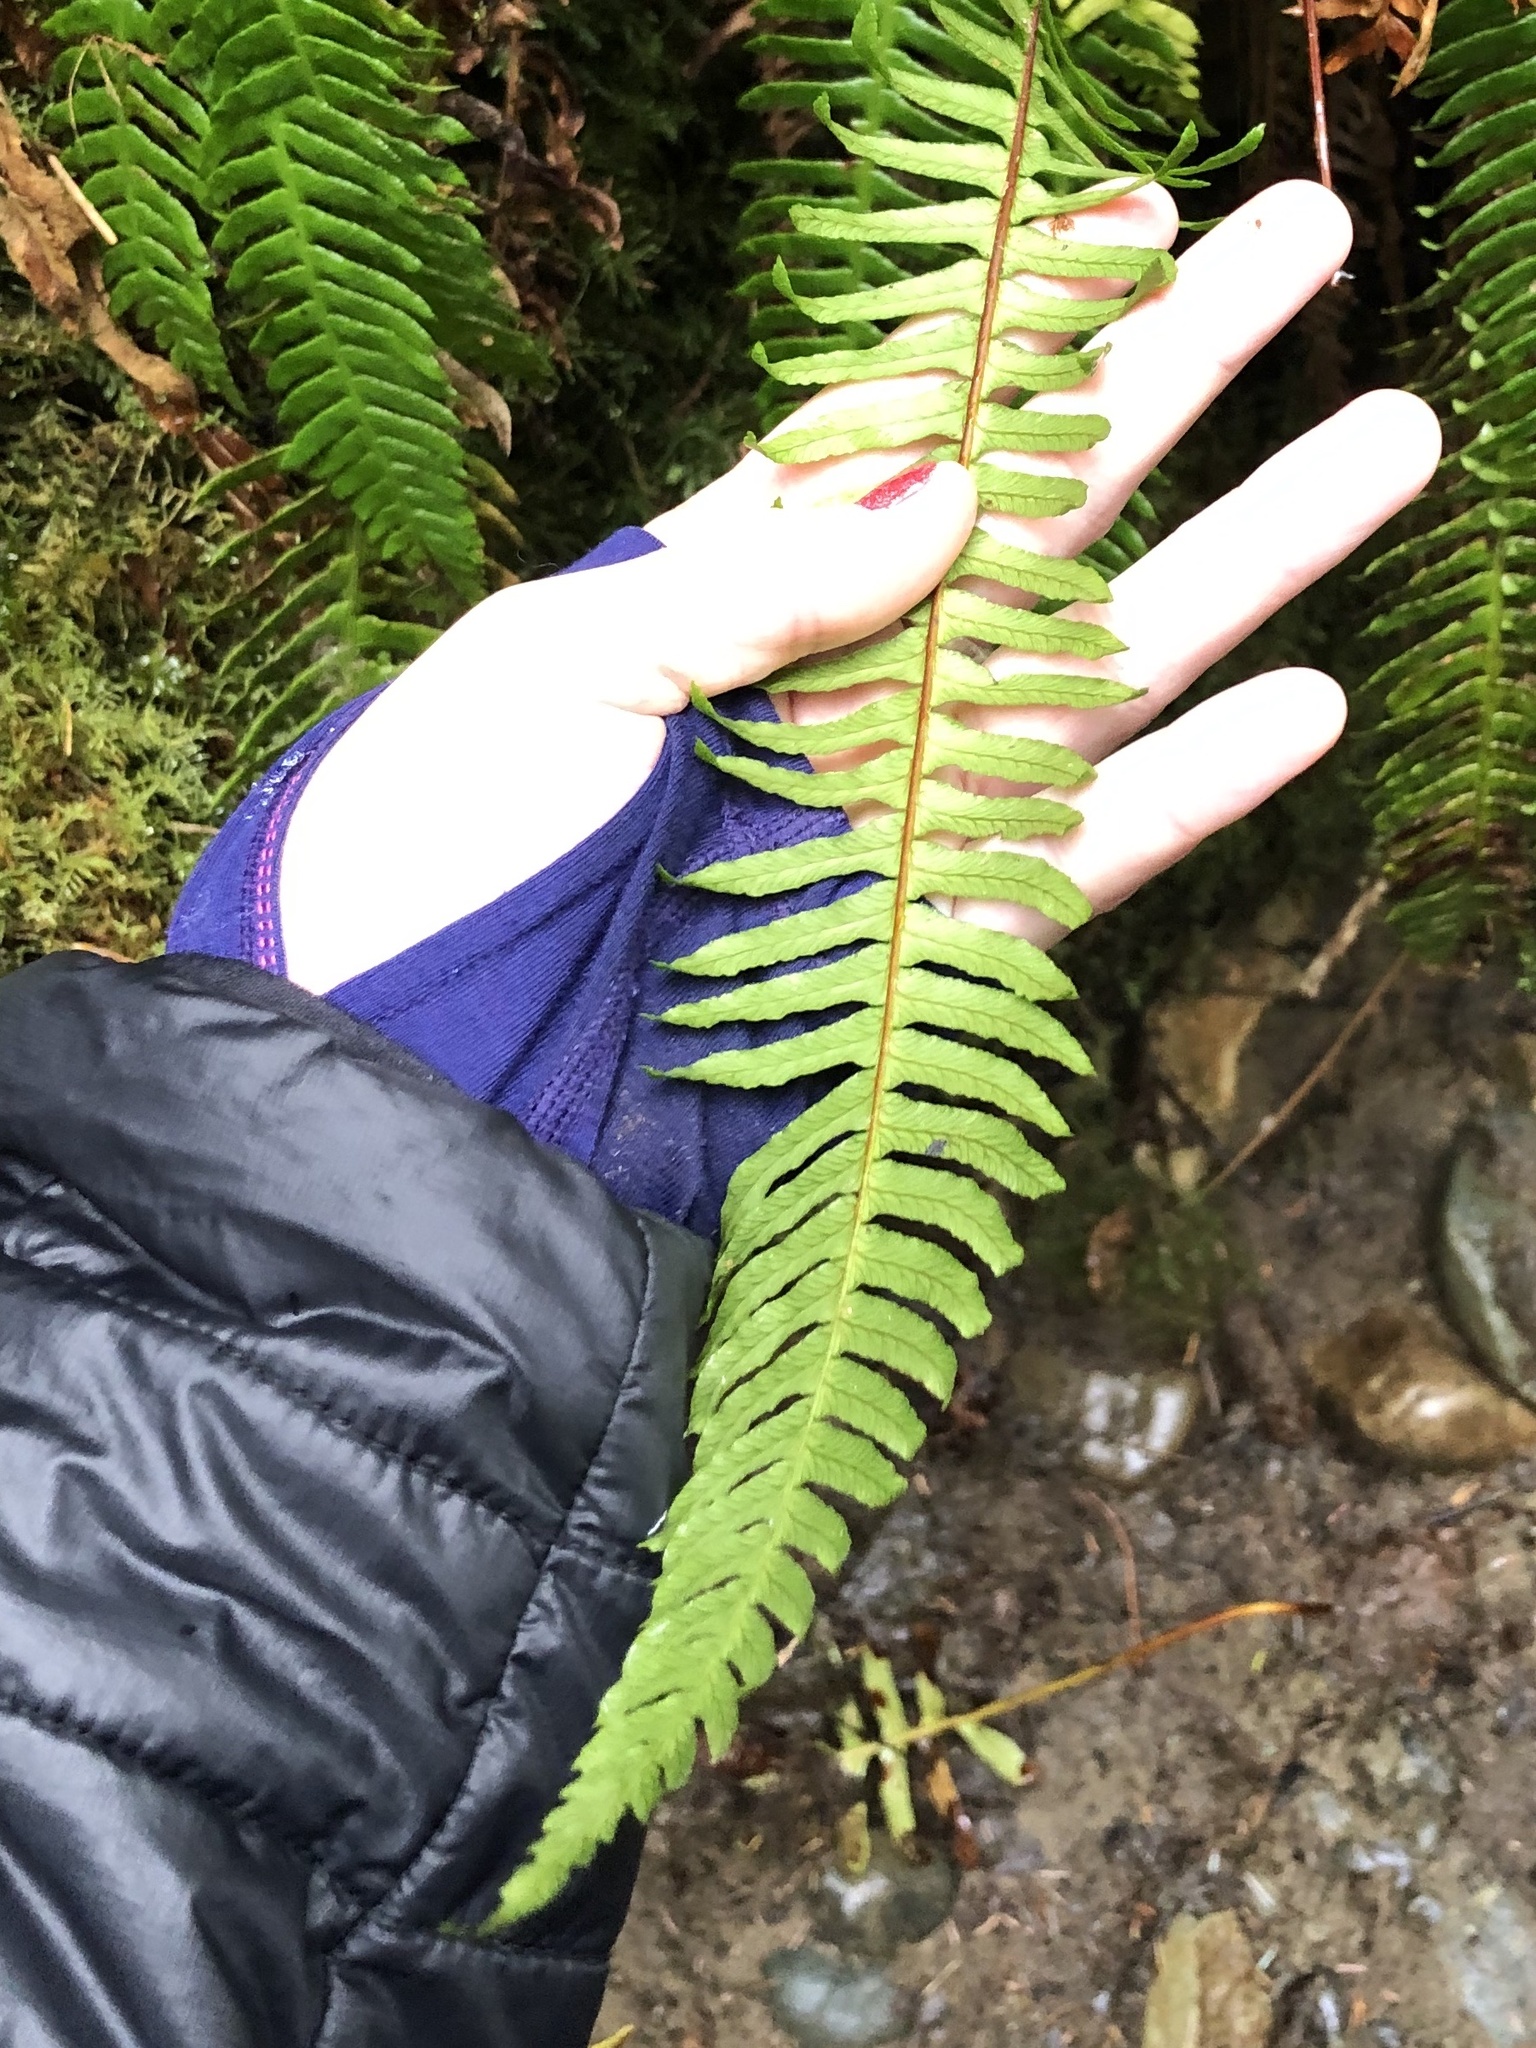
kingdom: Plantae
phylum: Tracheophyta
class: Polypodiopsida
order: Polypodiales
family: Blechnaceae
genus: Struthiopteris
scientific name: Struthiopteris spicant
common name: Deer fern
